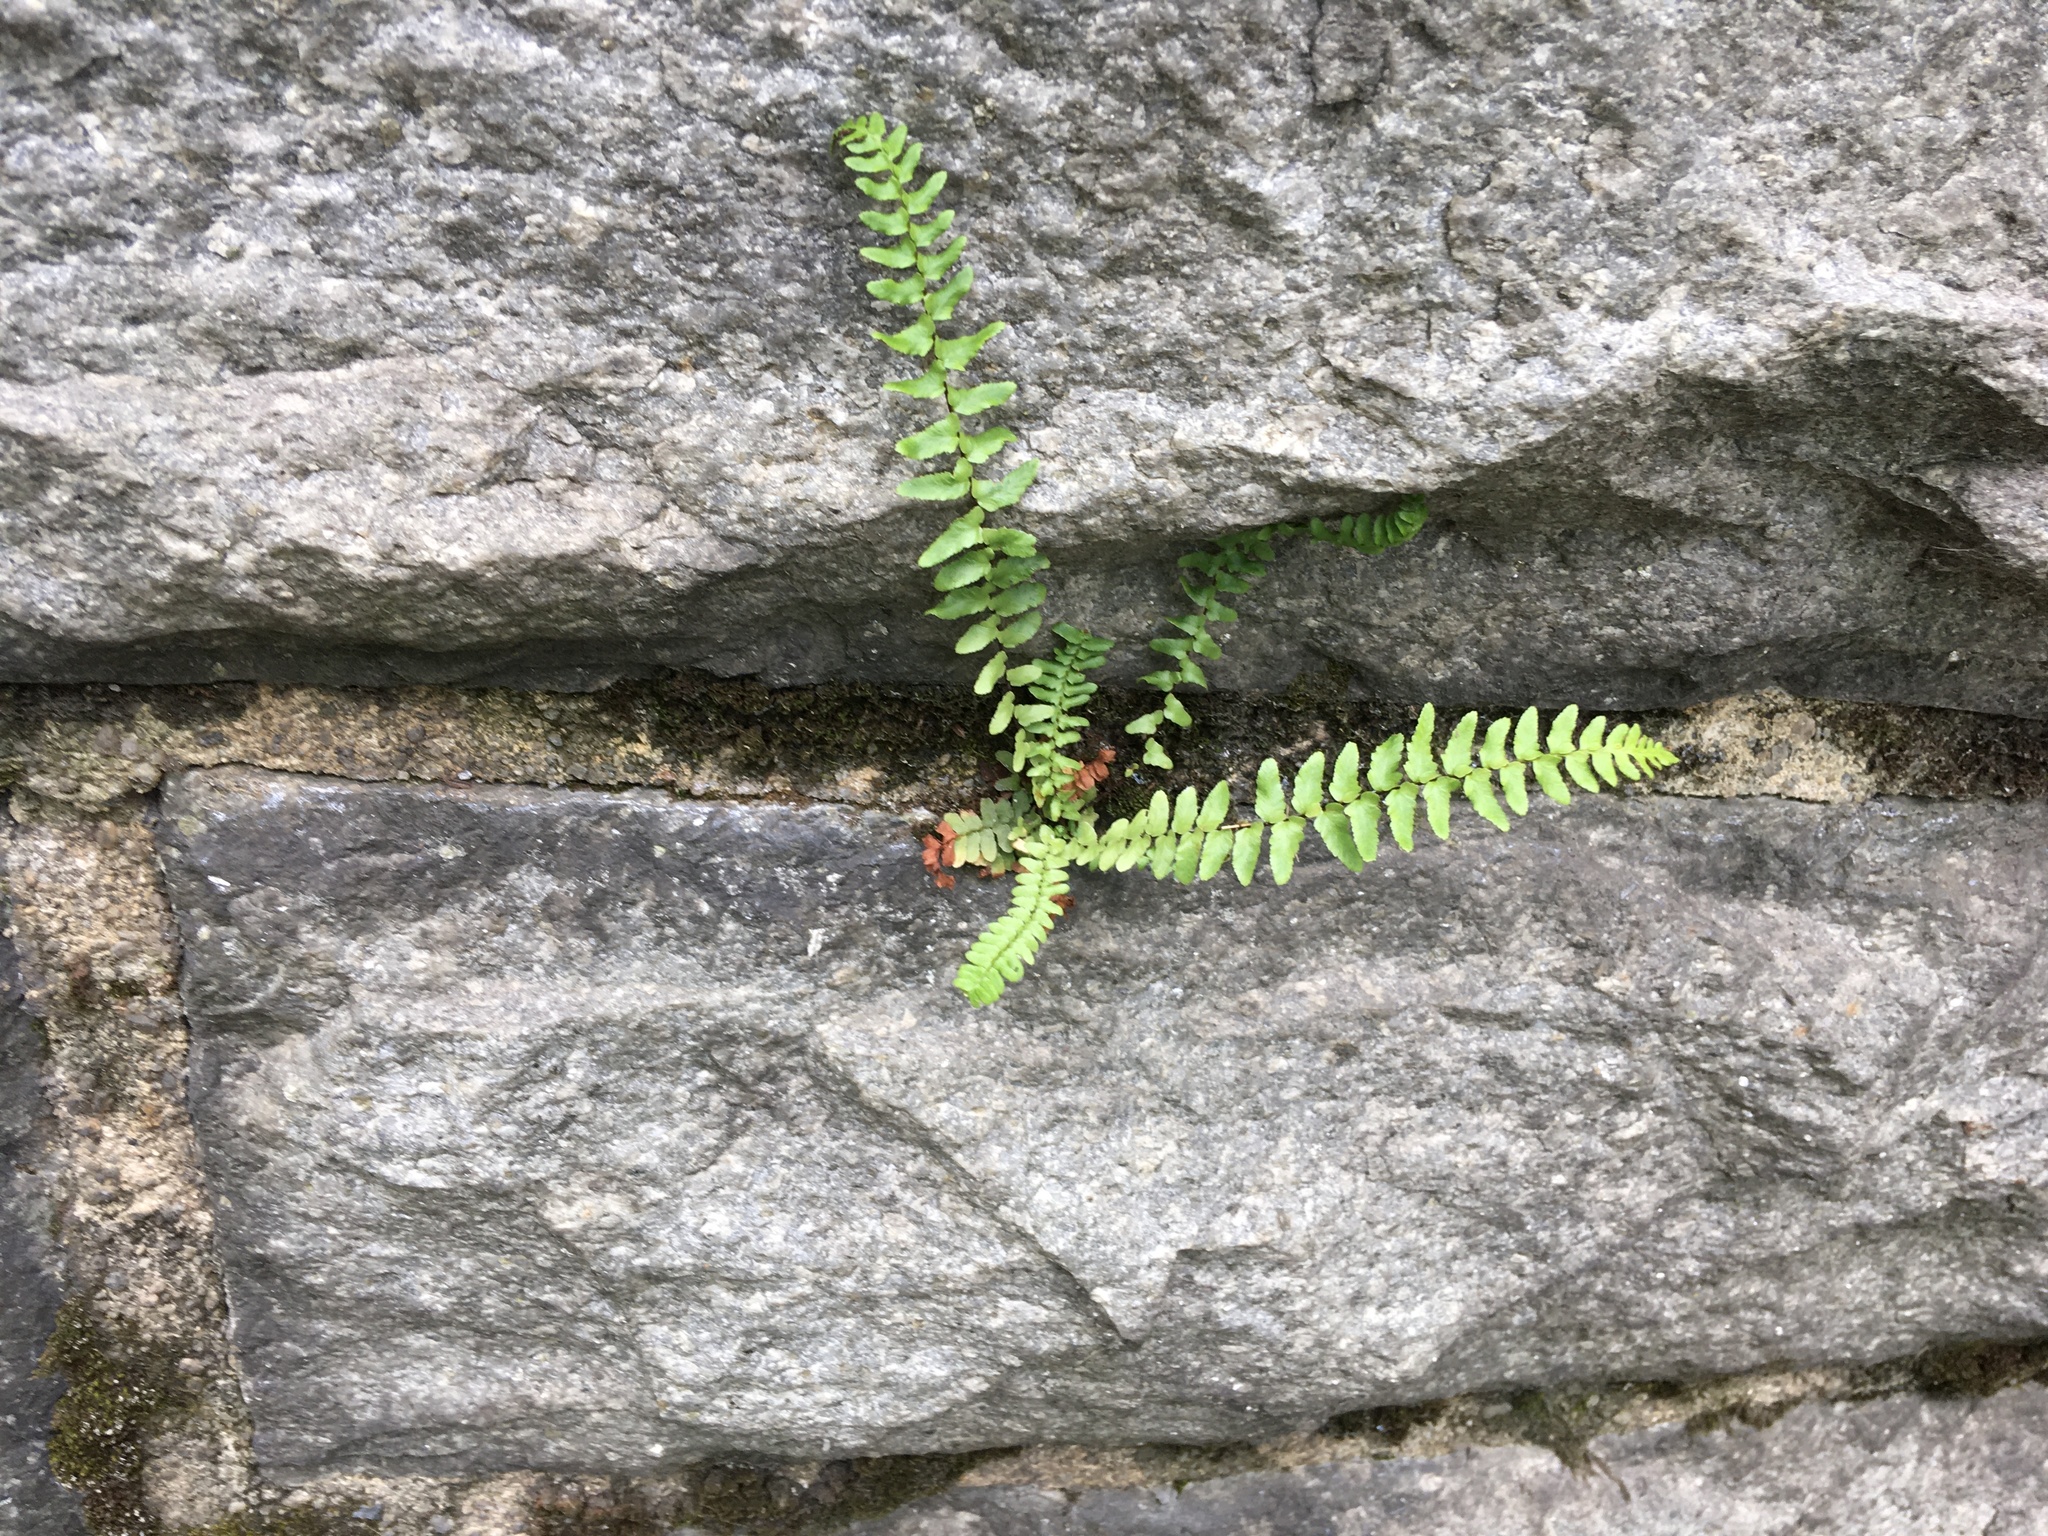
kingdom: Plantae
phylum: Tracheophyta
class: Polypodiopsida
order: Polypodiales
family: Aspleniaceae
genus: Asplenium
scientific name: Asplenium platyneuron
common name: Ebony spleenwort
